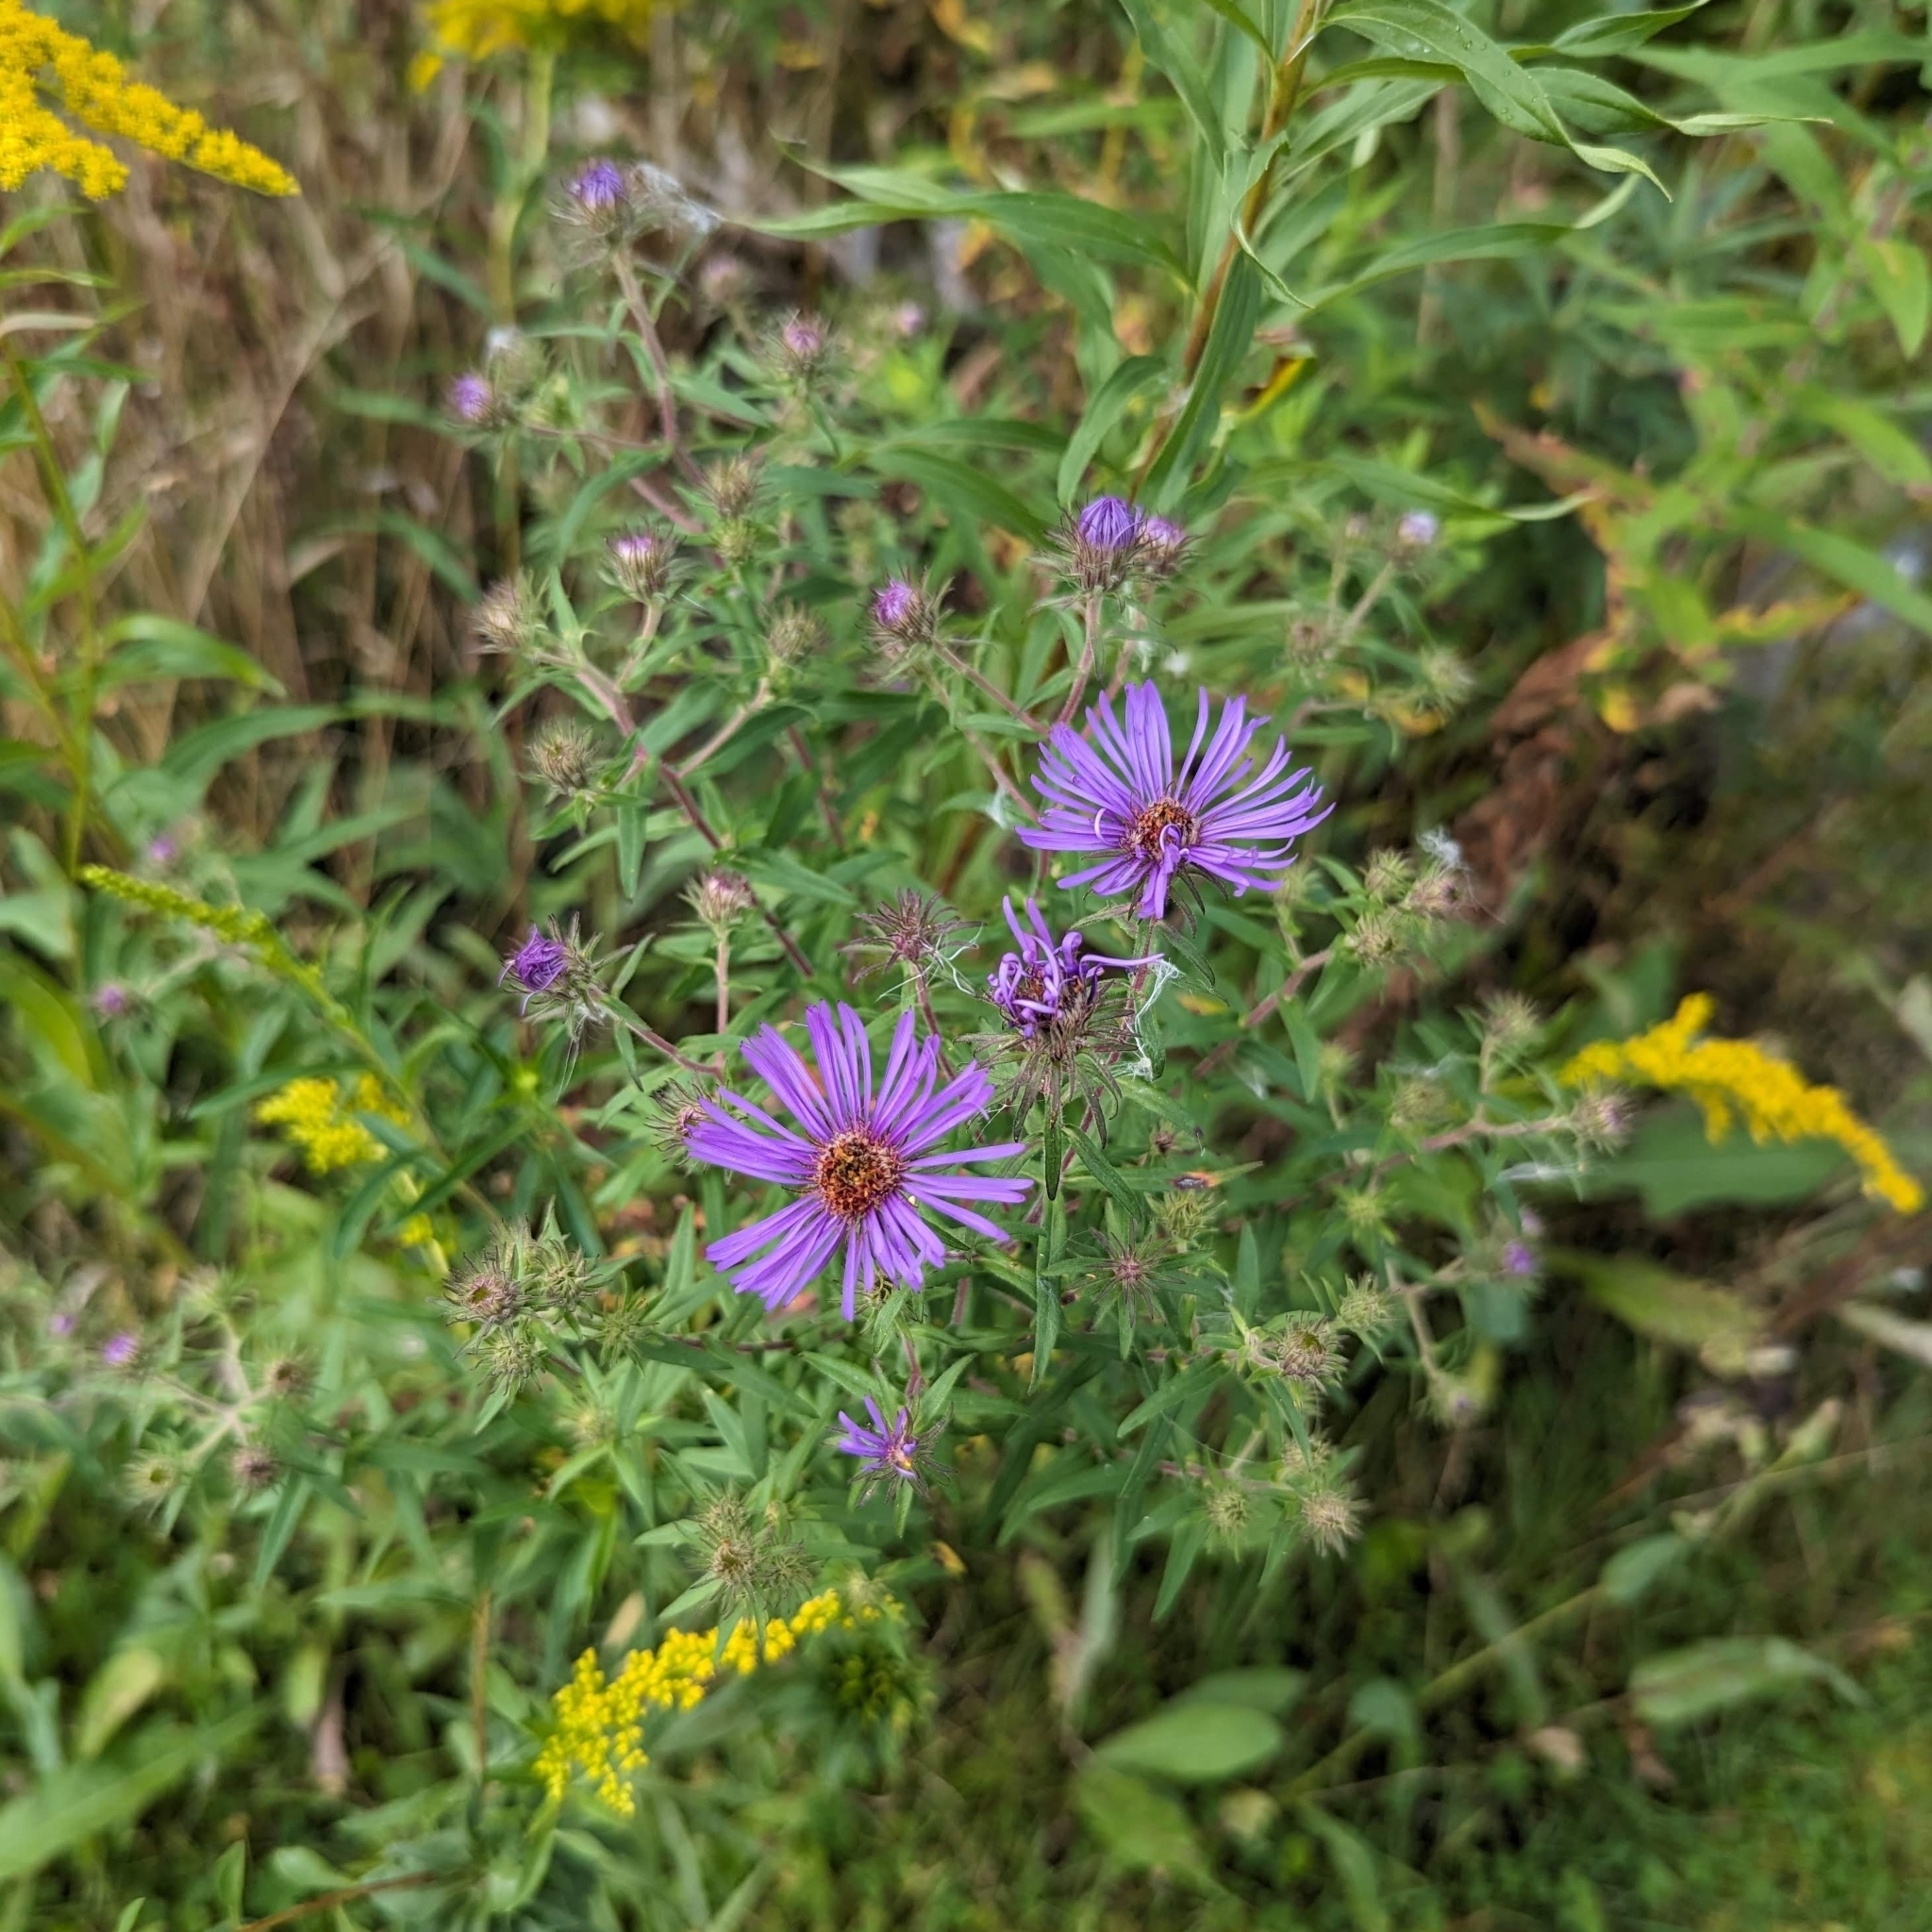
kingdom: Plantae
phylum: Tracheophyta
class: Magnoliopsida
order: Asterales
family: Asteraceae
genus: Symphyotrichum
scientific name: Symphyotrichum novae-angliae
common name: Michaelmas daisy
